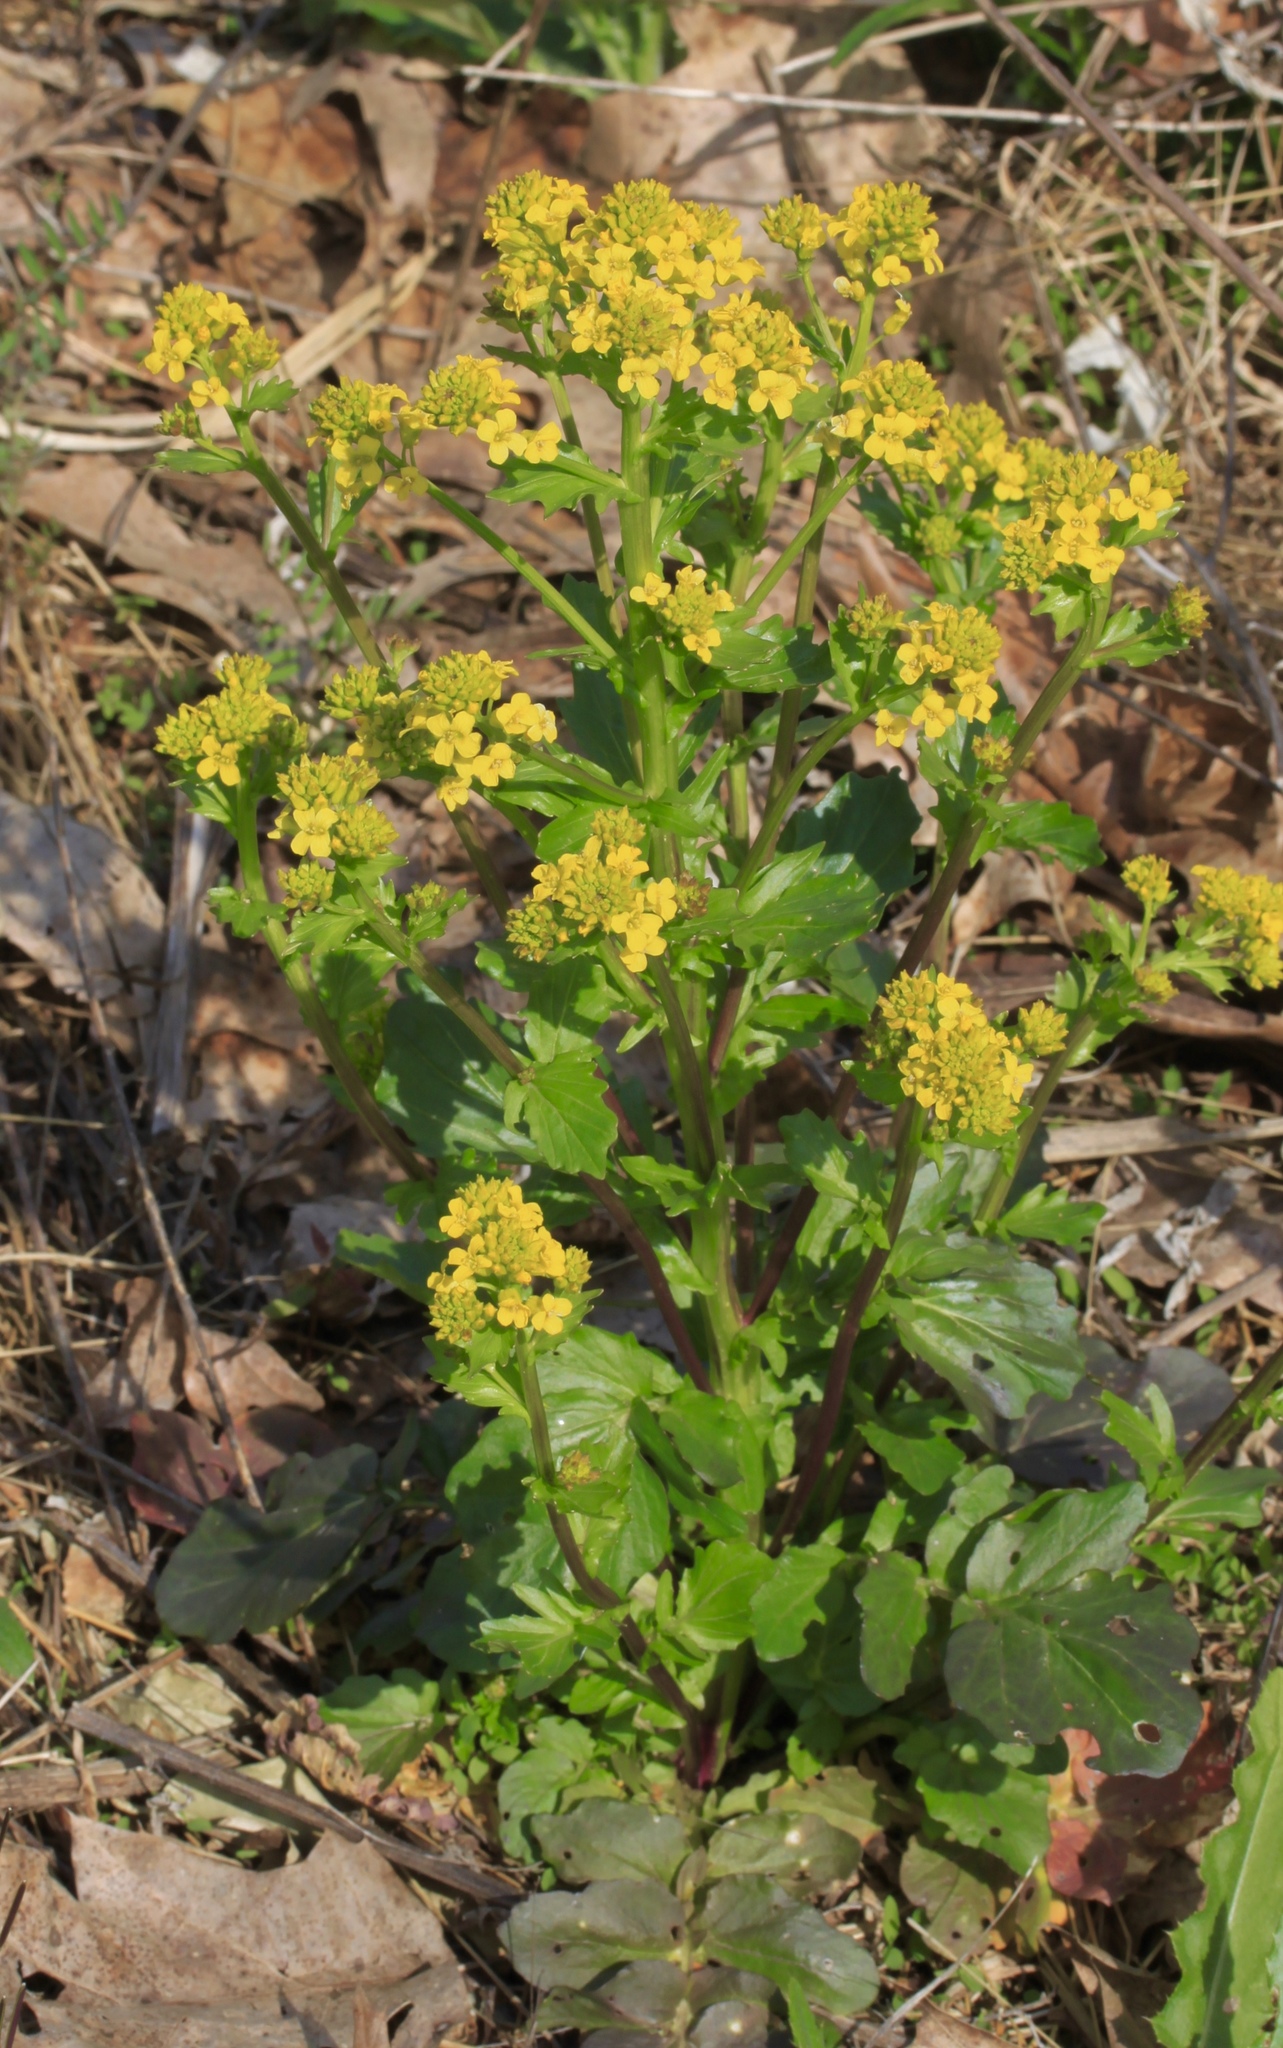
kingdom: Plantae
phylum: Tracheophyta
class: Magnoliopsida
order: Brassicales
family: Brassicaceae
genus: Barbarea
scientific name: Barbarea vulgaris
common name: Cressy-greens
